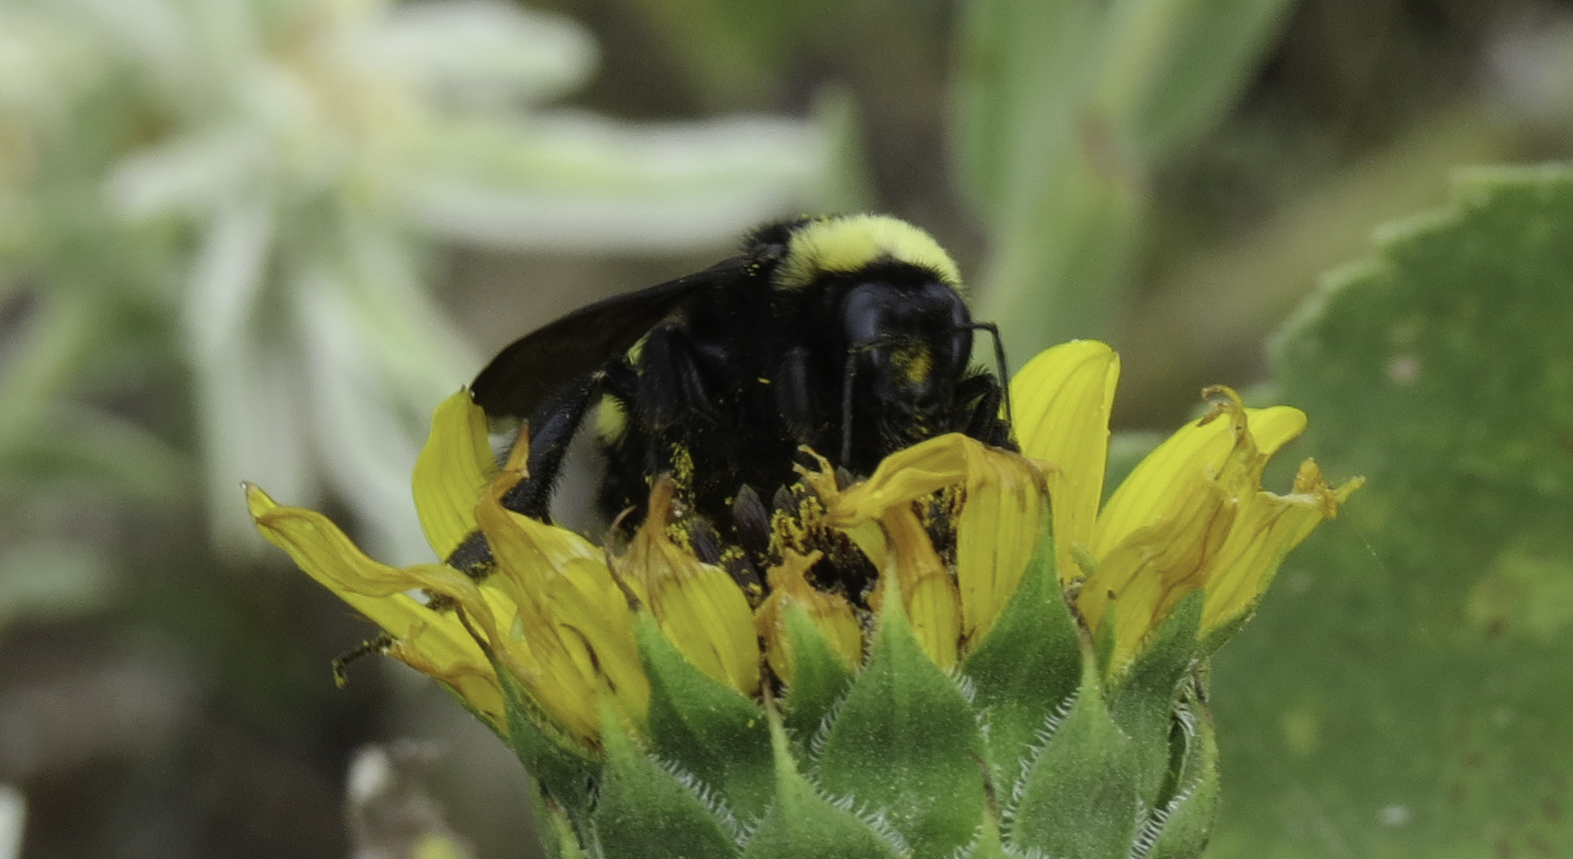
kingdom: Animalia
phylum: Arthropoda
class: Insecta
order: Hymenoptera
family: Apidae
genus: Bombus
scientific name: Bombus pensylvanicus
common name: Bumble bee
